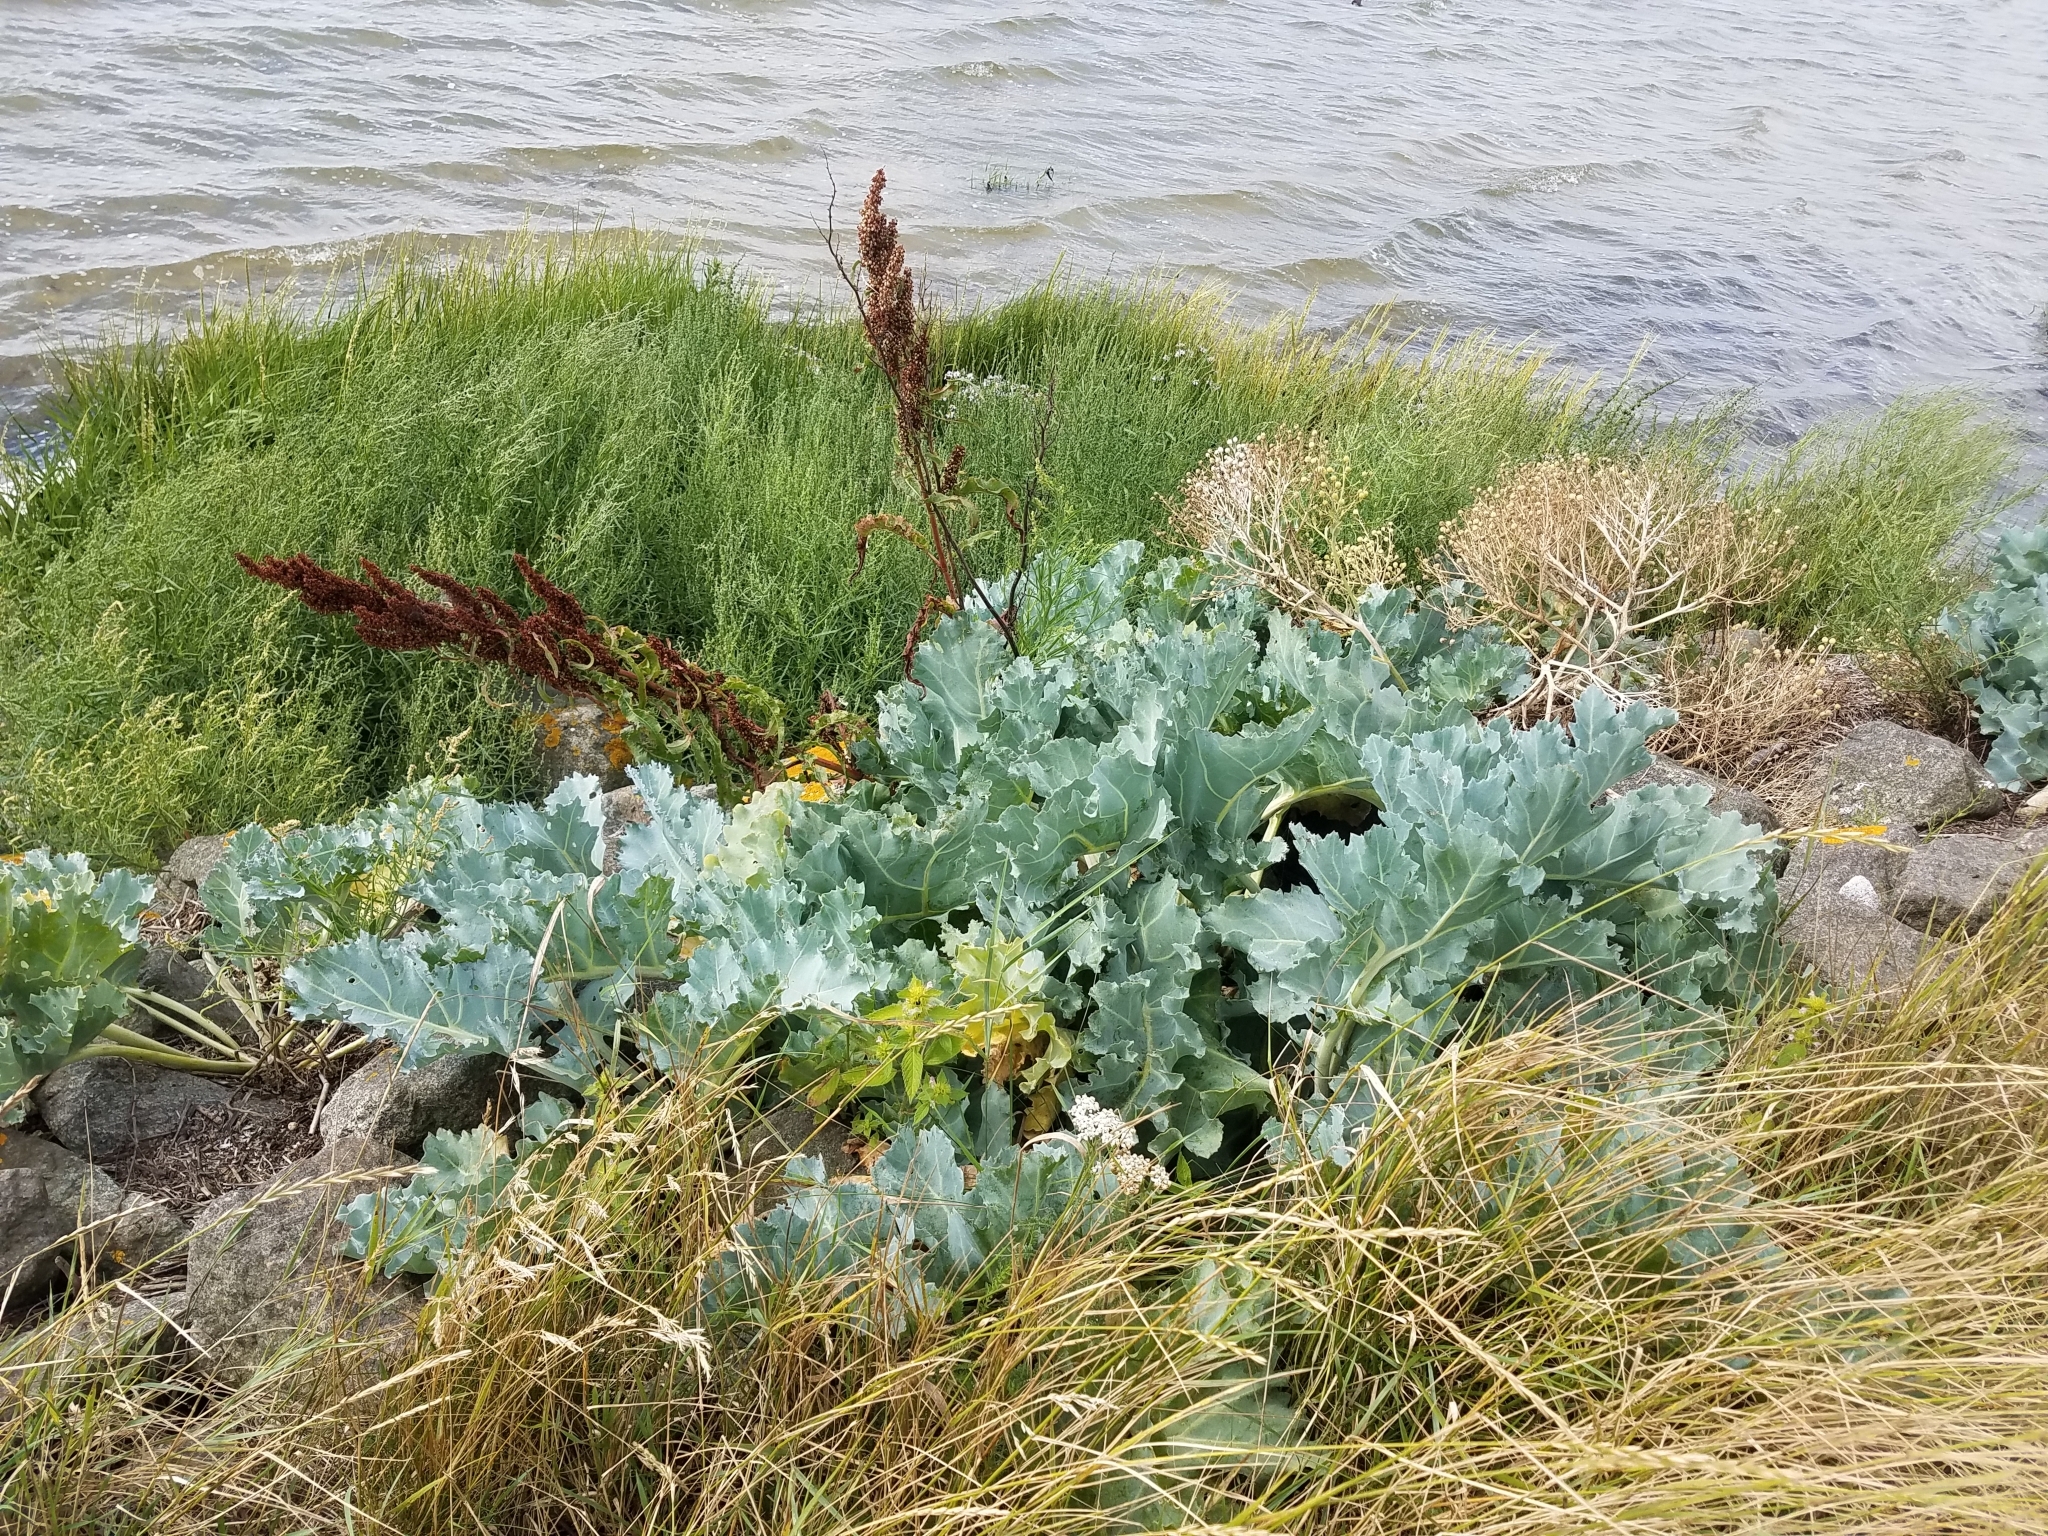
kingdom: Plantae
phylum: Tracheophyta
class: Magnoliopsida
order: Brassicales
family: Brassicaceae
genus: Crambe
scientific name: Crambe maritima
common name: Sea-kale
